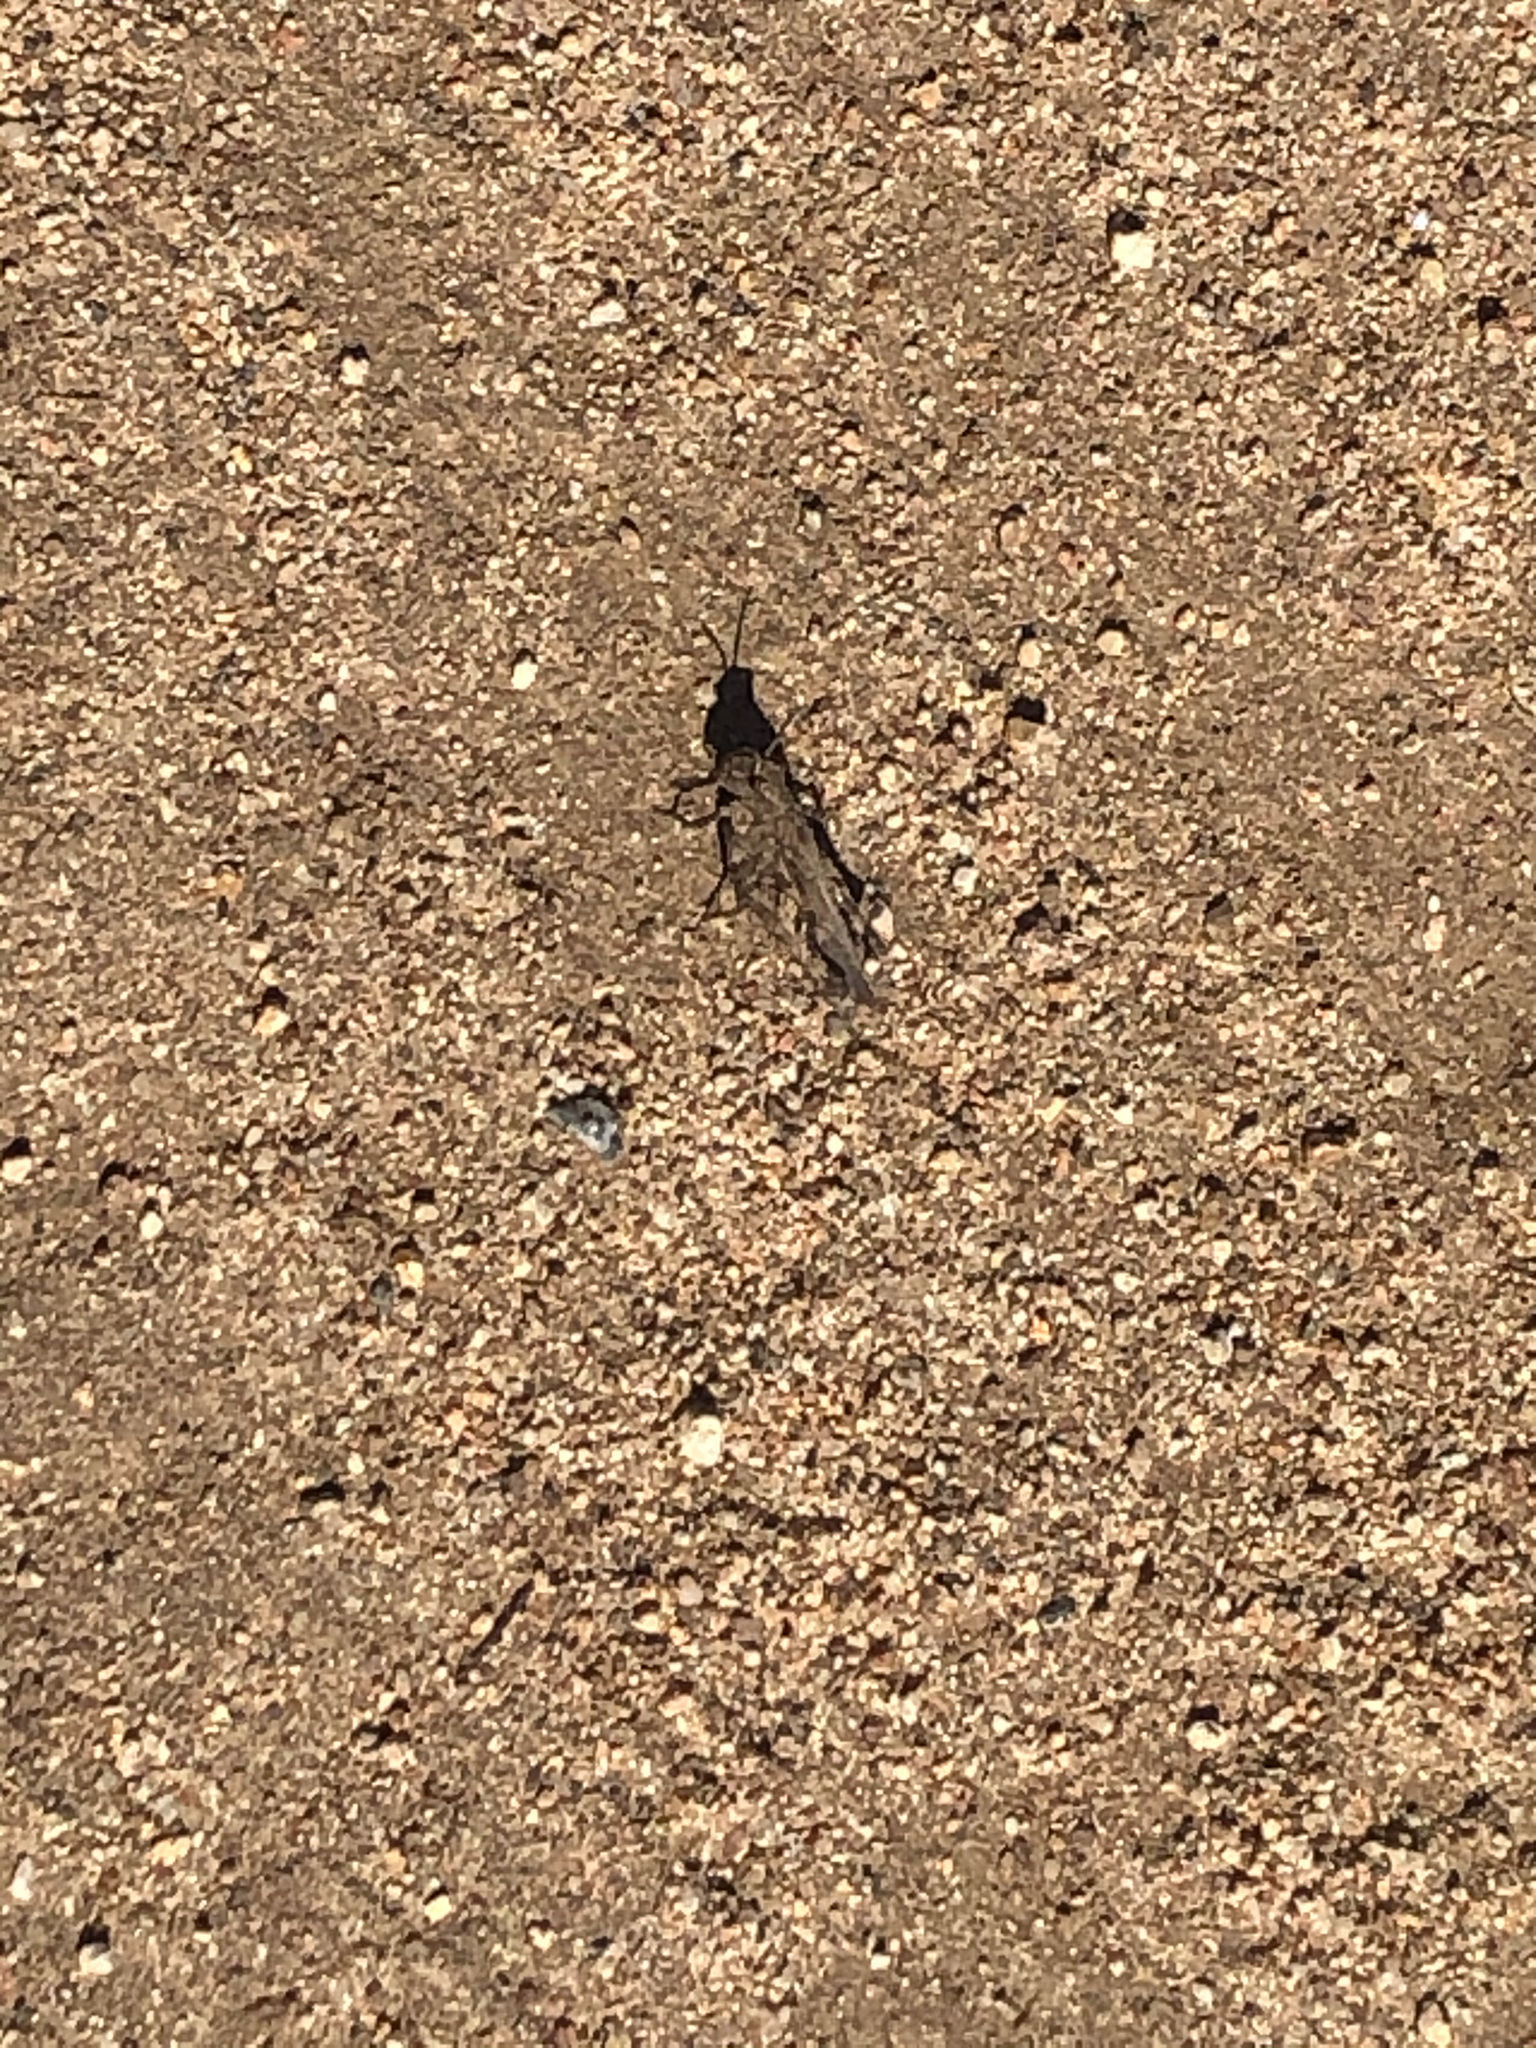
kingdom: Animalia
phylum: Arthropoda
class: Insecta
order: Orthoptera
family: Acrididae
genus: Chimarocephala
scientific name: Chimarocephala pacifica
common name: Painted meadow grasshopper
